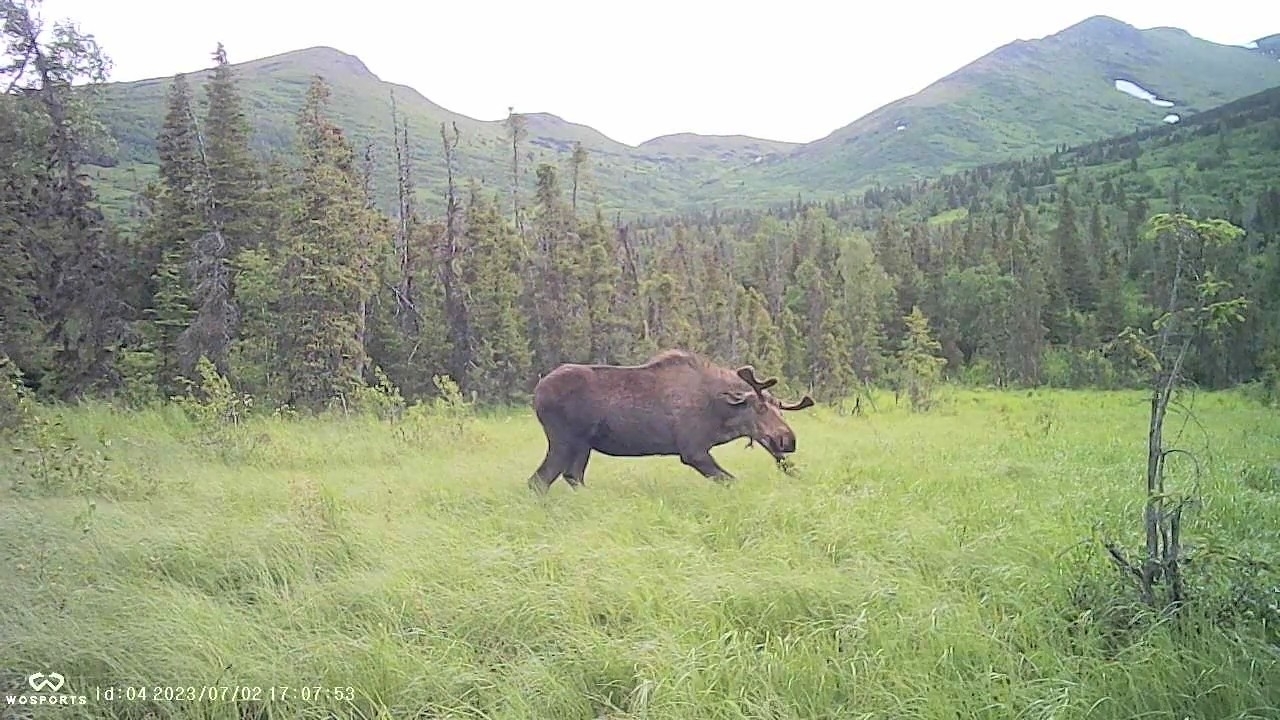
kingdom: Animalia
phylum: Chordata
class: Mammalia
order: Artiodactyla
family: Cervidae
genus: Alces
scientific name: Alces alces
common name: Moose
